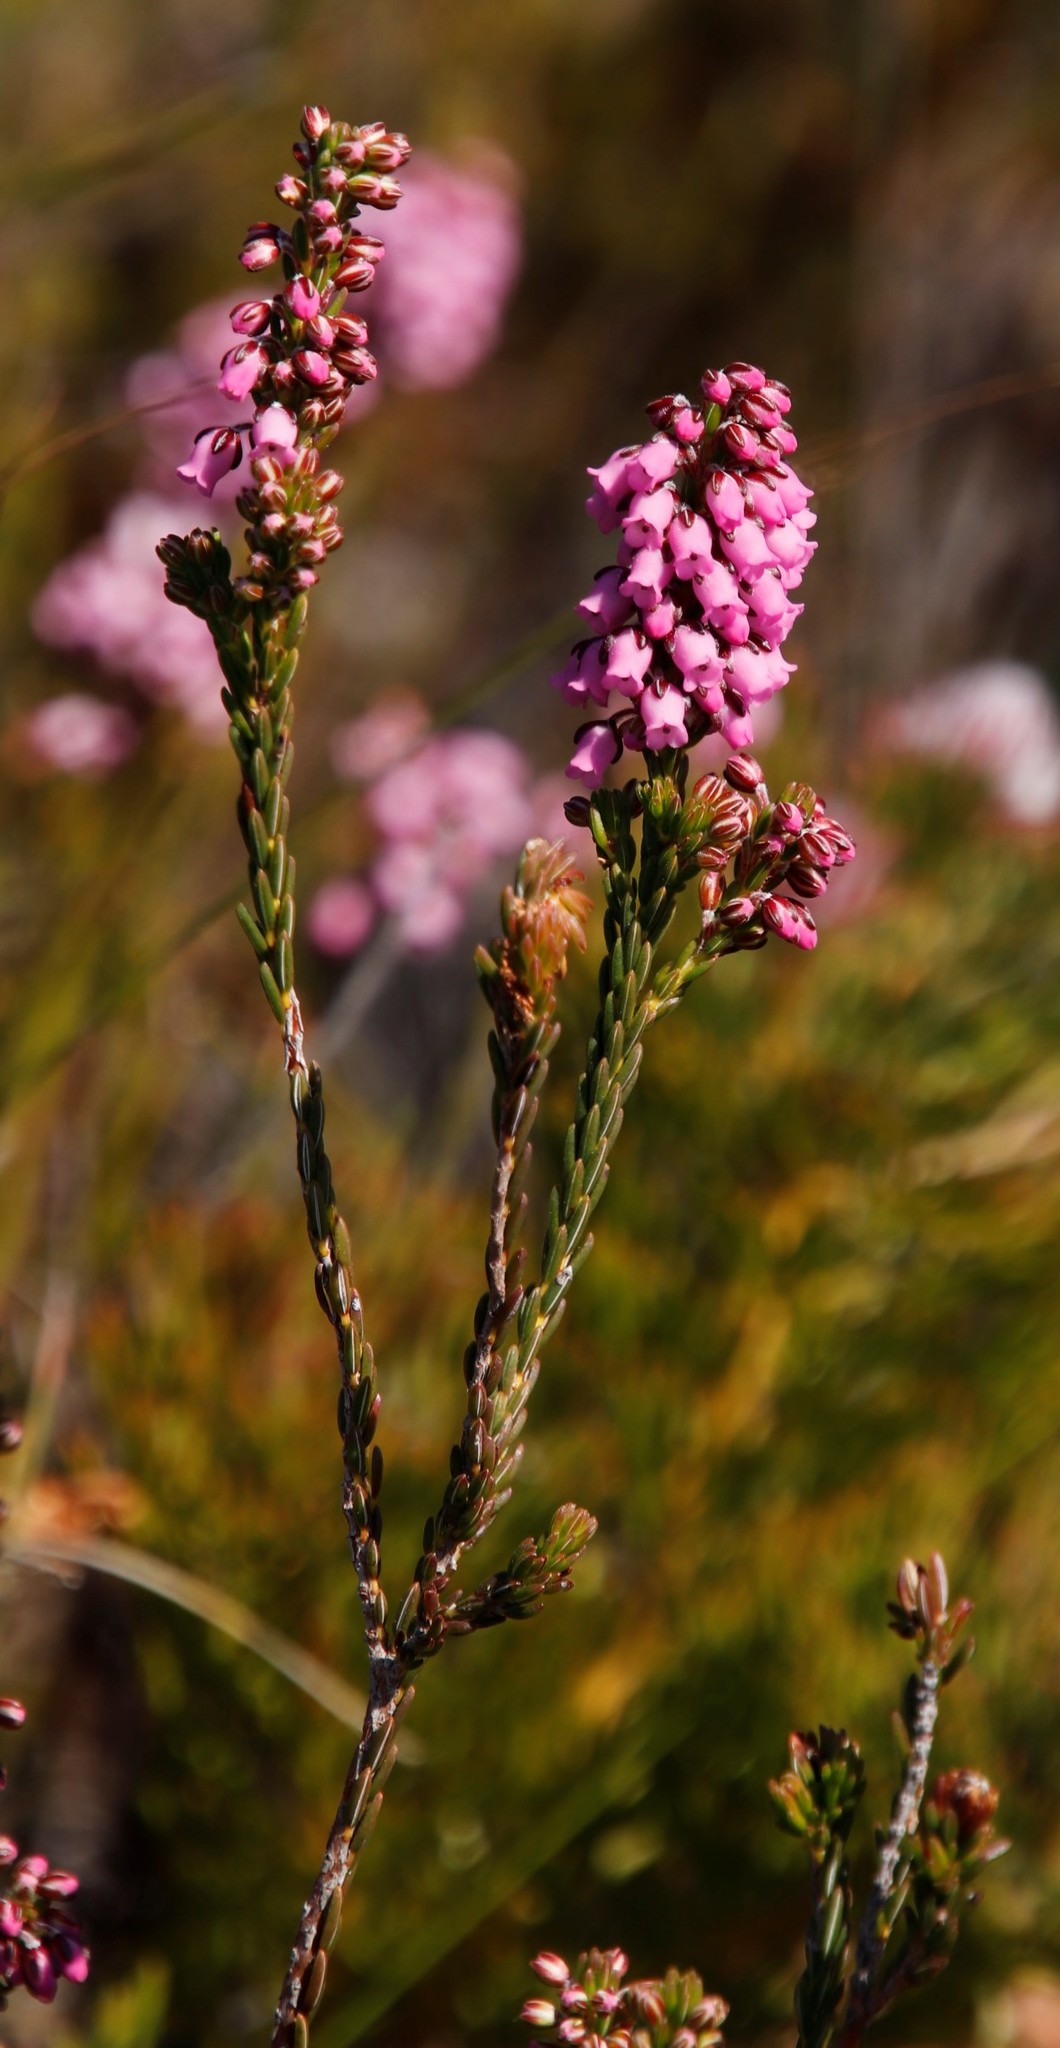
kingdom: Plantae
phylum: Tracheophyta
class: Magnoliopsida
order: Ericales
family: Ericaceae
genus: Erica
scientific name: Erica pulchella
